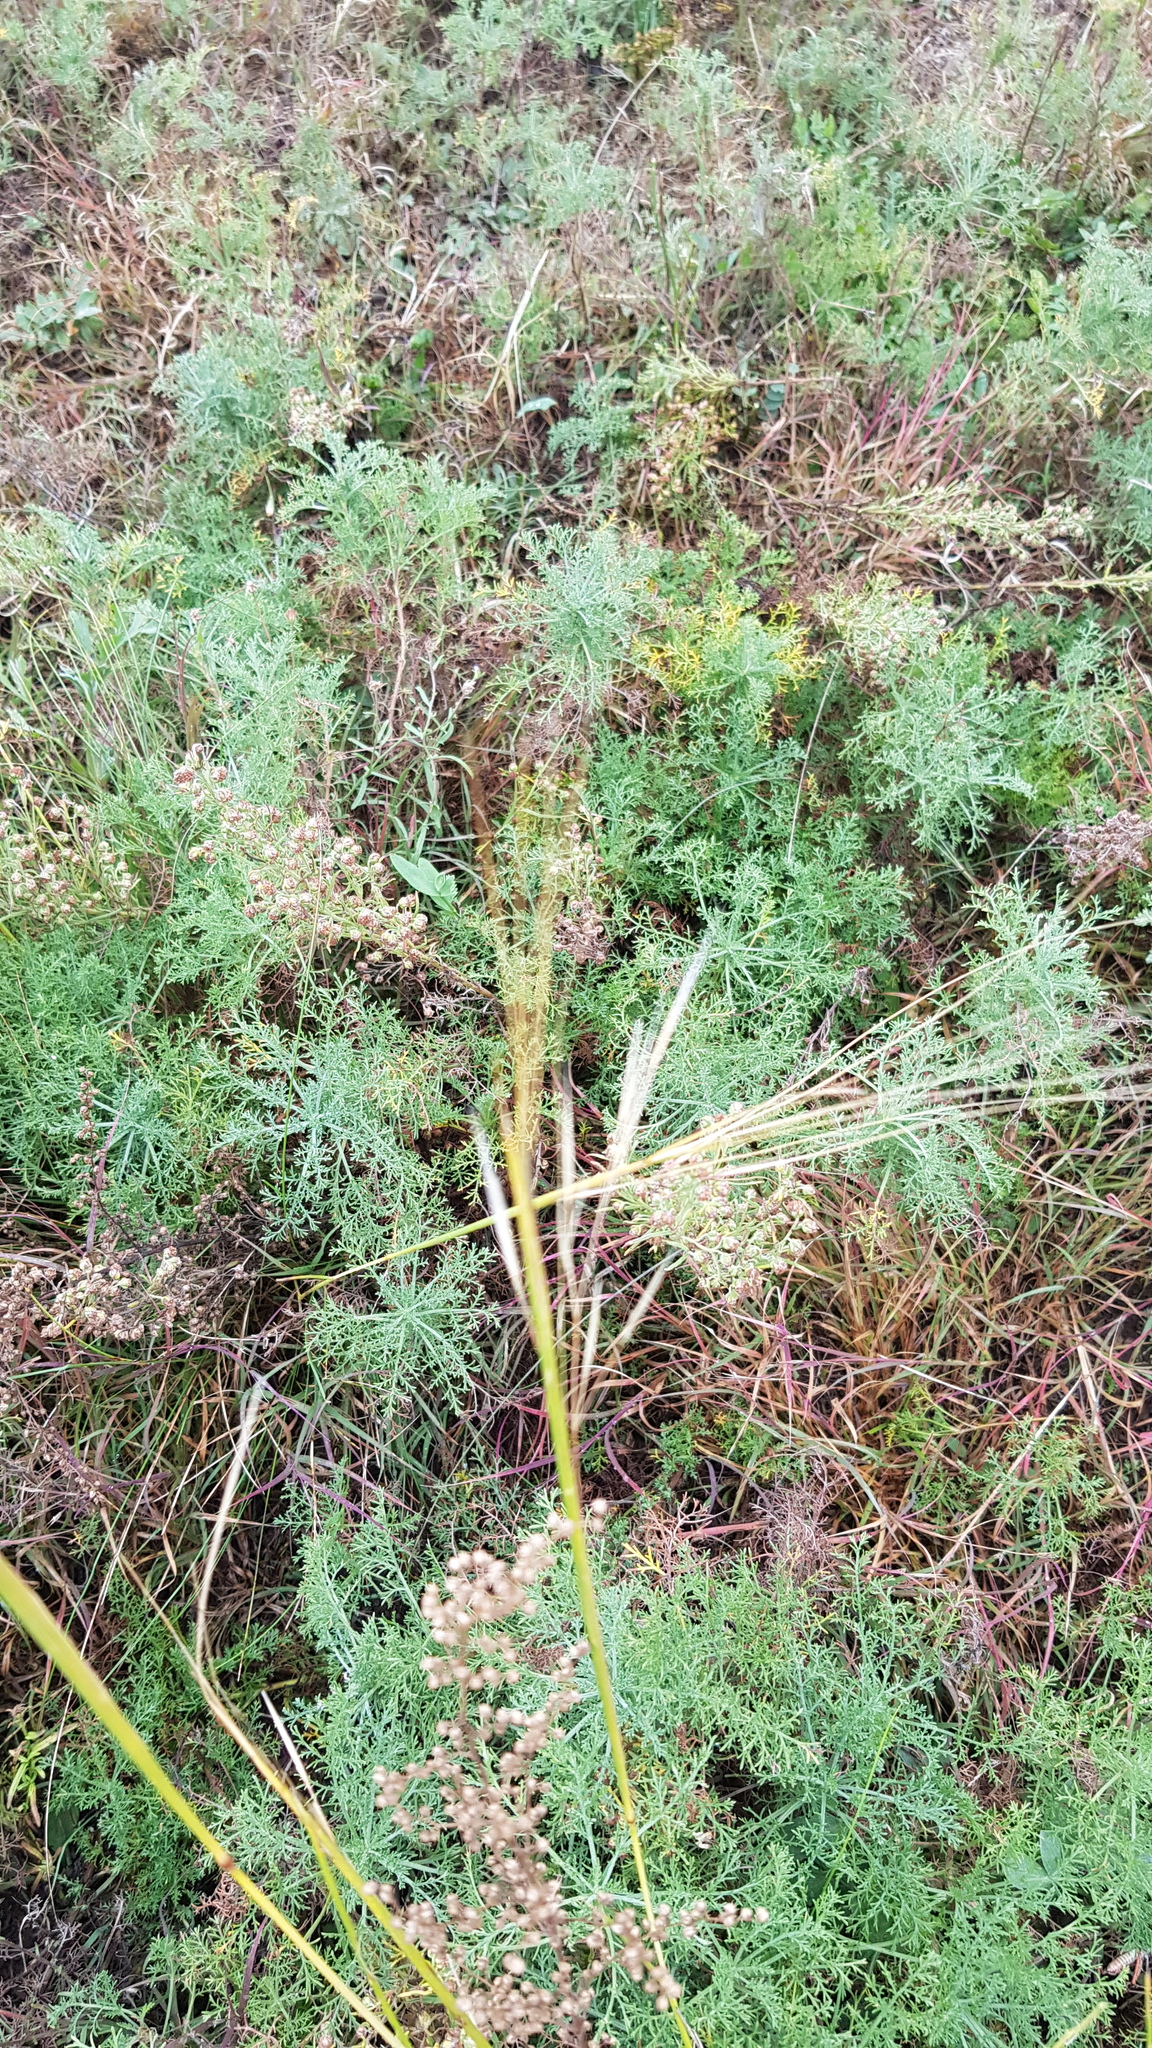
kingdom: Plantae
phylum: Tracheophyta
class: Liliopsida
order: Poales
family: Poaceae
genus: Stipa
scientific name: Stipa krylovii
